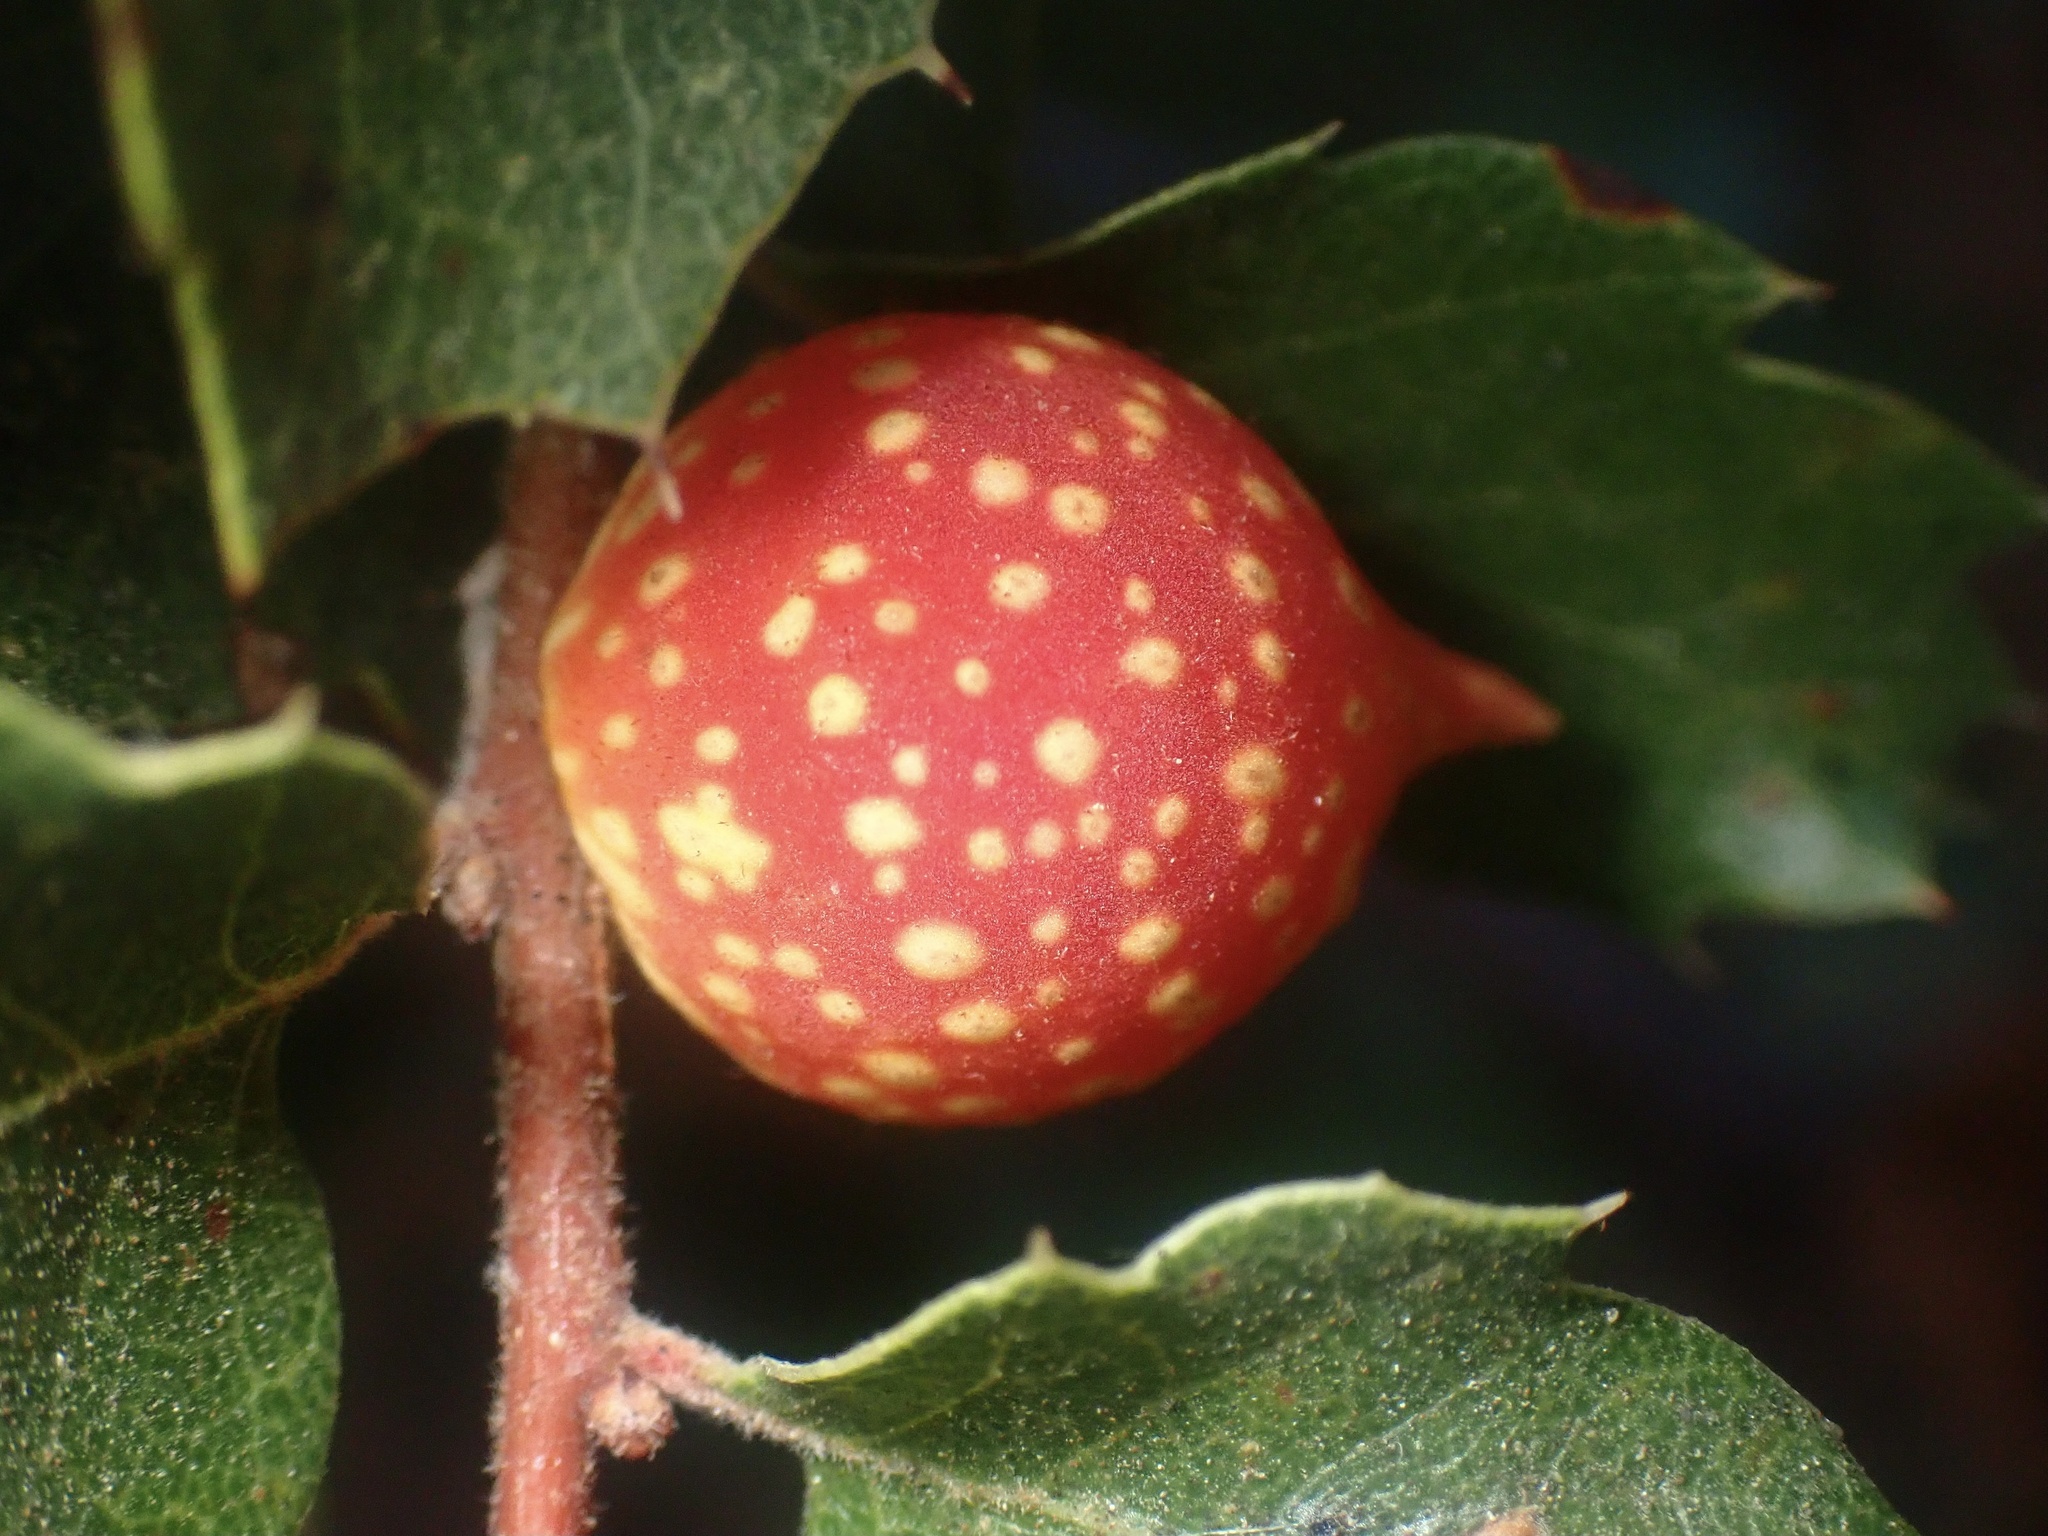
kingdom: Animalia
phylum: Arthropoda
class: Insecta
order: Hymenoptera
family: Cynipidae
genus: Burnettweldia
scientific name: Burnettweldia
